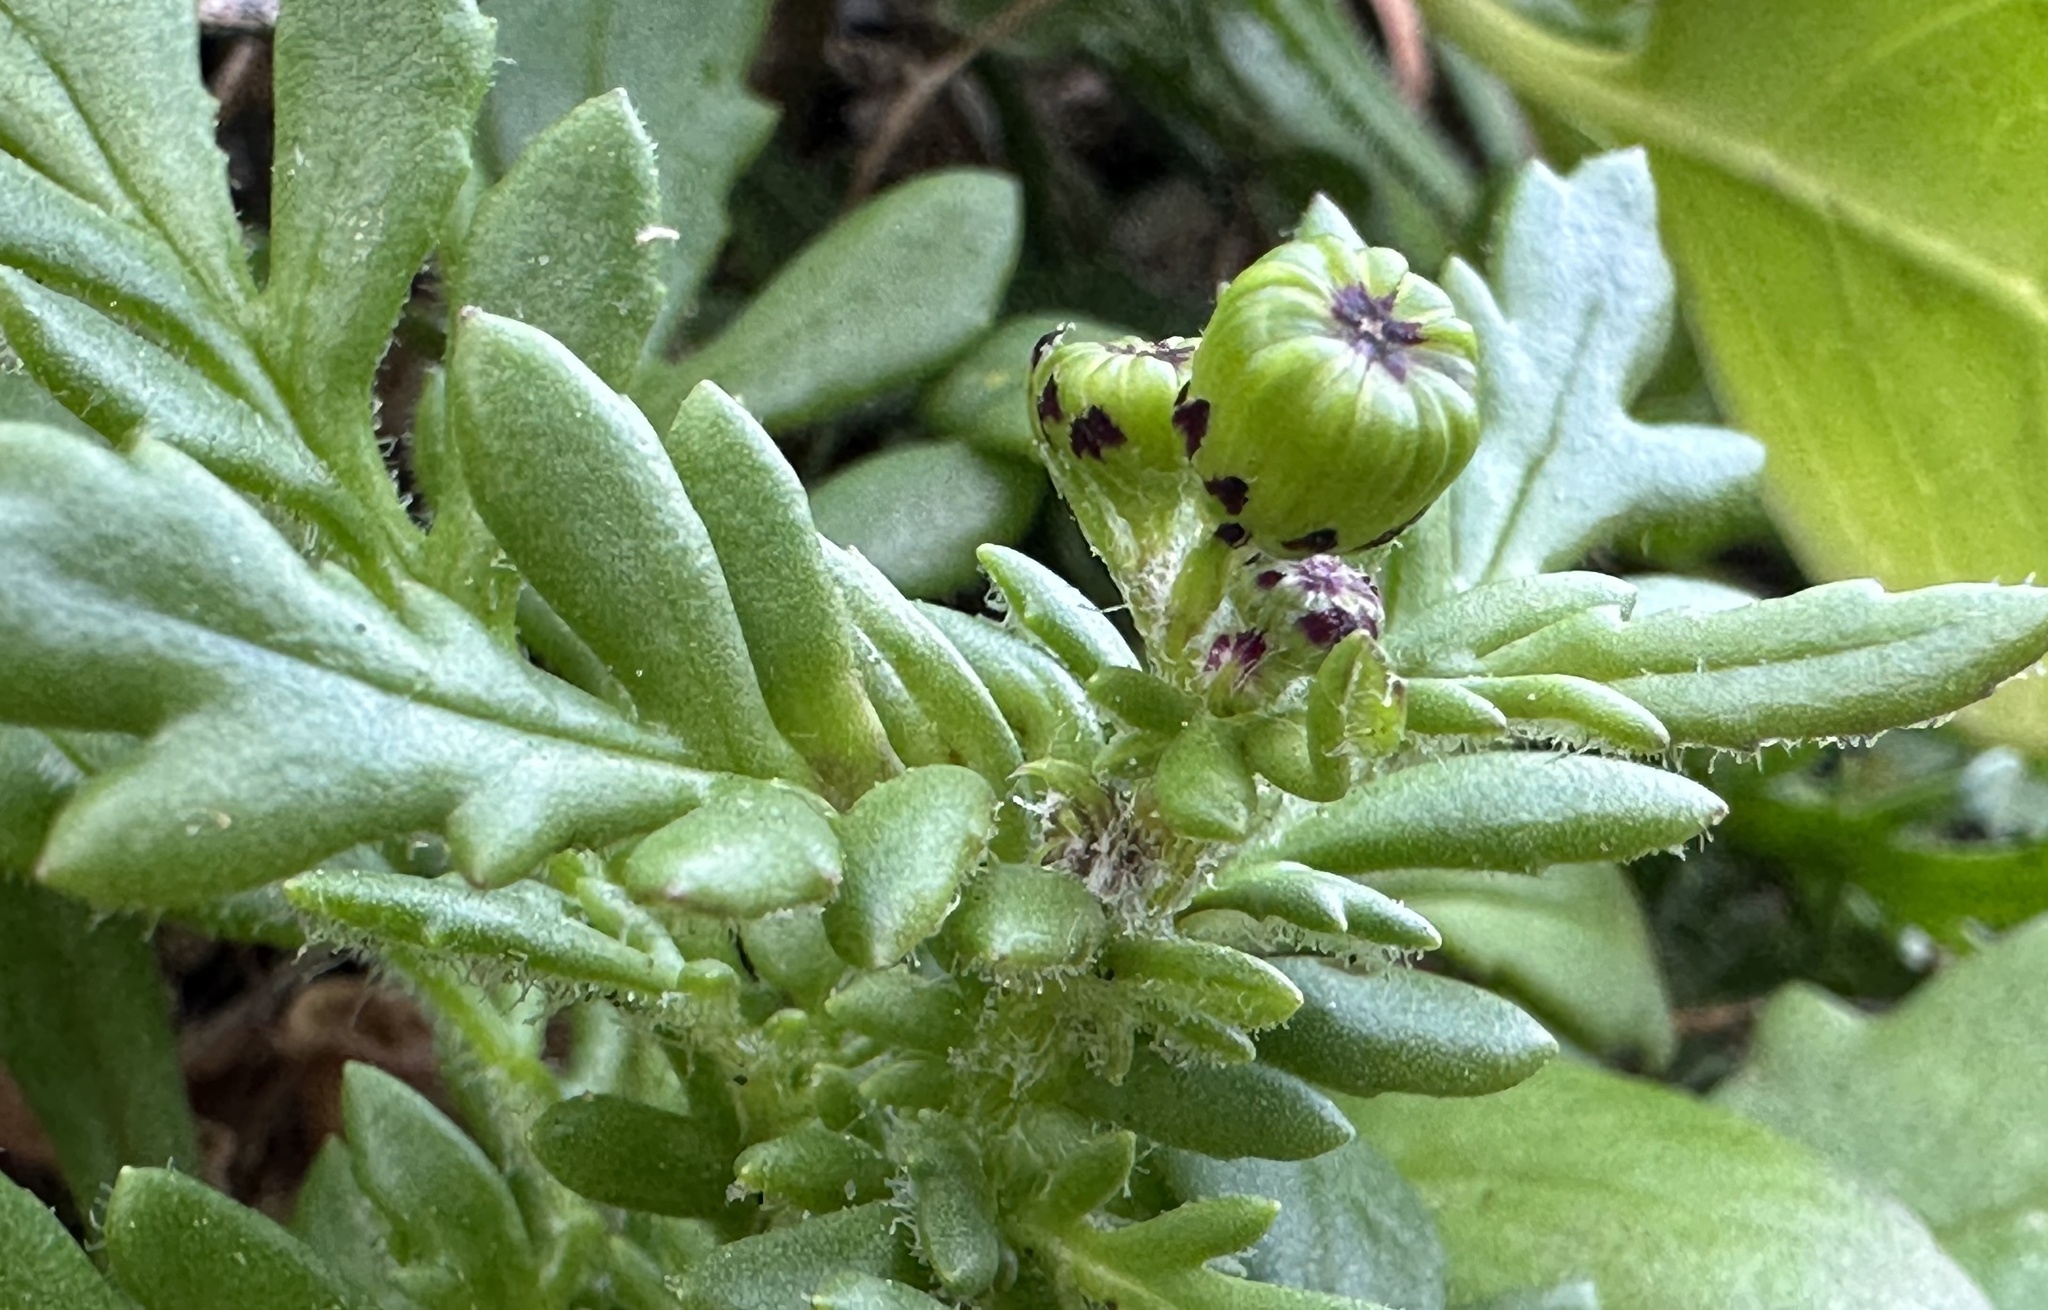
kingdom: Plantae
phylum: Tracheophyta
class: Magnoliopsida
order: Asterales
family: Asteraceae
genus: Senecio
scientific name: Senecio lautus
